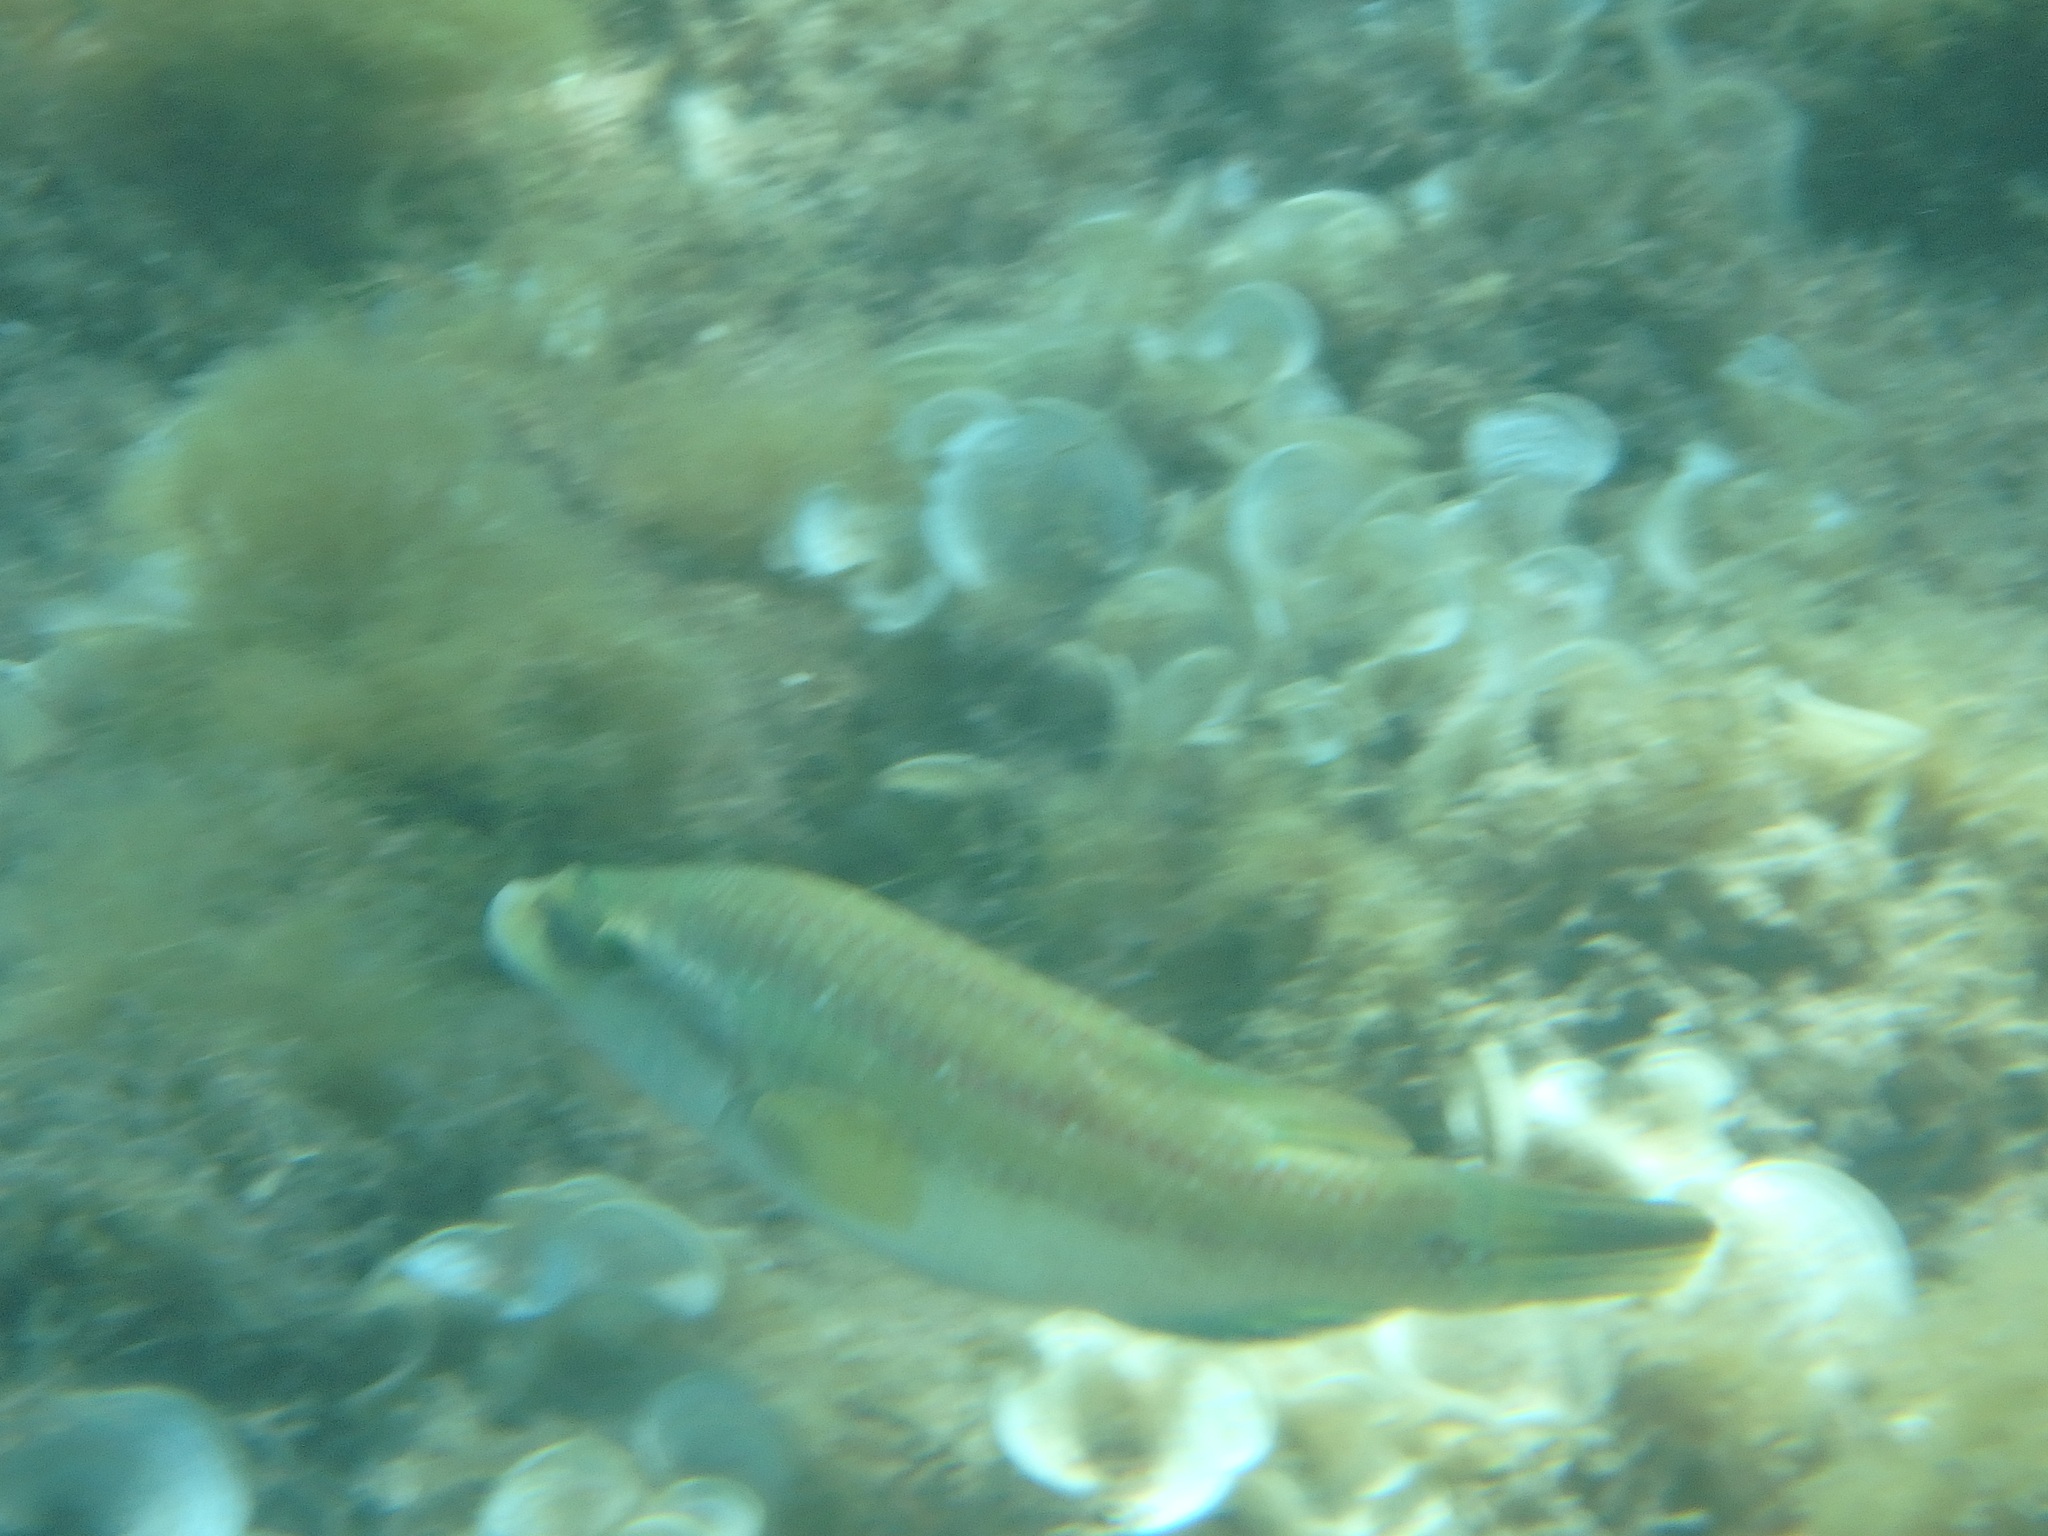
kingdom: Animalia
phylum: Chordata
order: Perciformes
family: Labridae
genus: Symphodus
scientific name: Symphodus tinca
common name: Peacock wrasse
